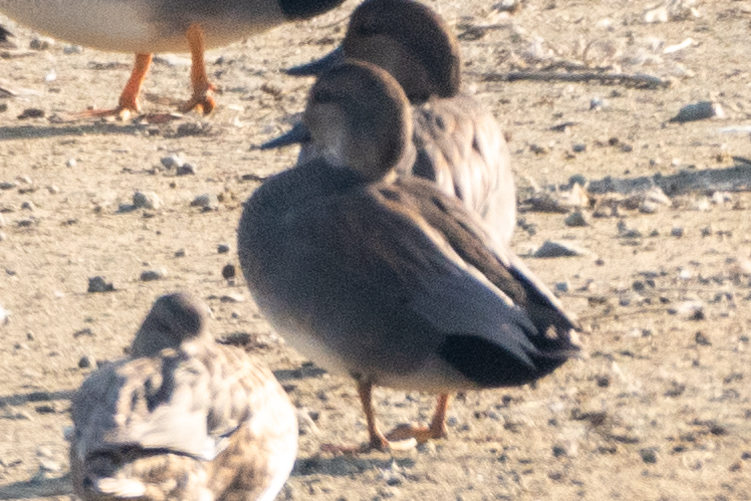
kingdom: Animalia
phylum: Chordata
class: Aves
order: Anseriformes
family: Anatidae
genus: Mareca
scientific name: Mareca strepera
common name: Gadwall
